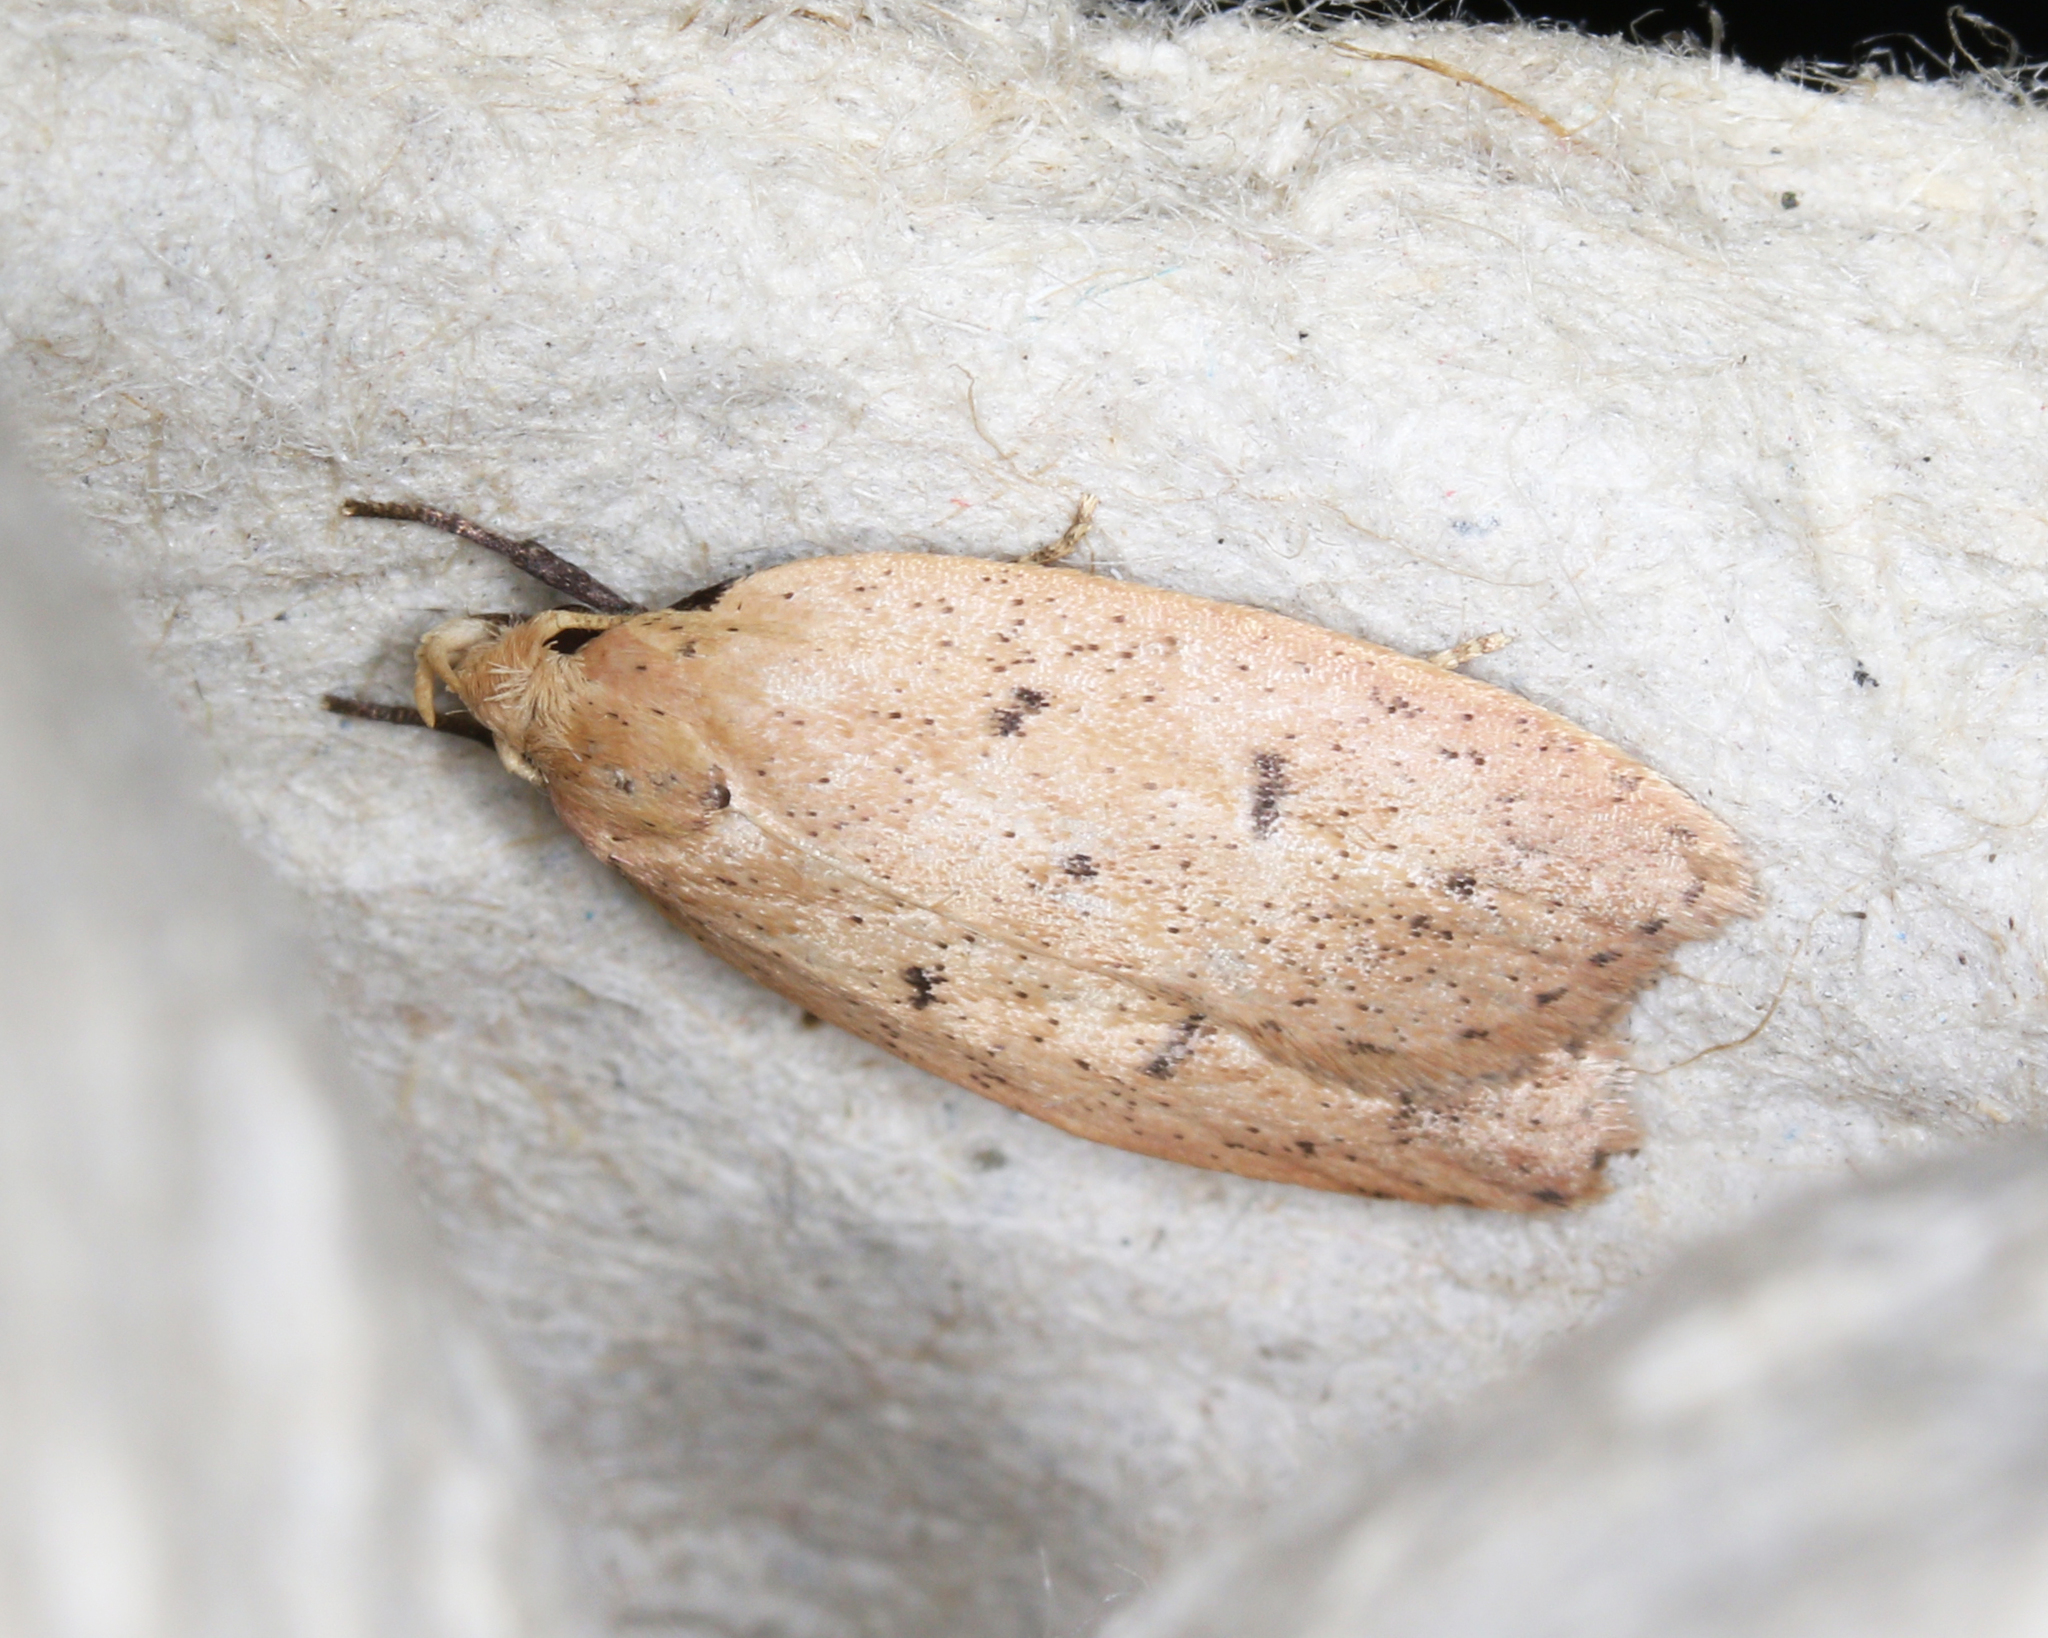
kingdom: Animalia
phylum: Arthropoda
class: Insecta
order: Lepidoptera
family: Peleopodidae
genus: Machimia
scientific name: Machimia tentoriferella
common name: Gold-striped leaftier moth
